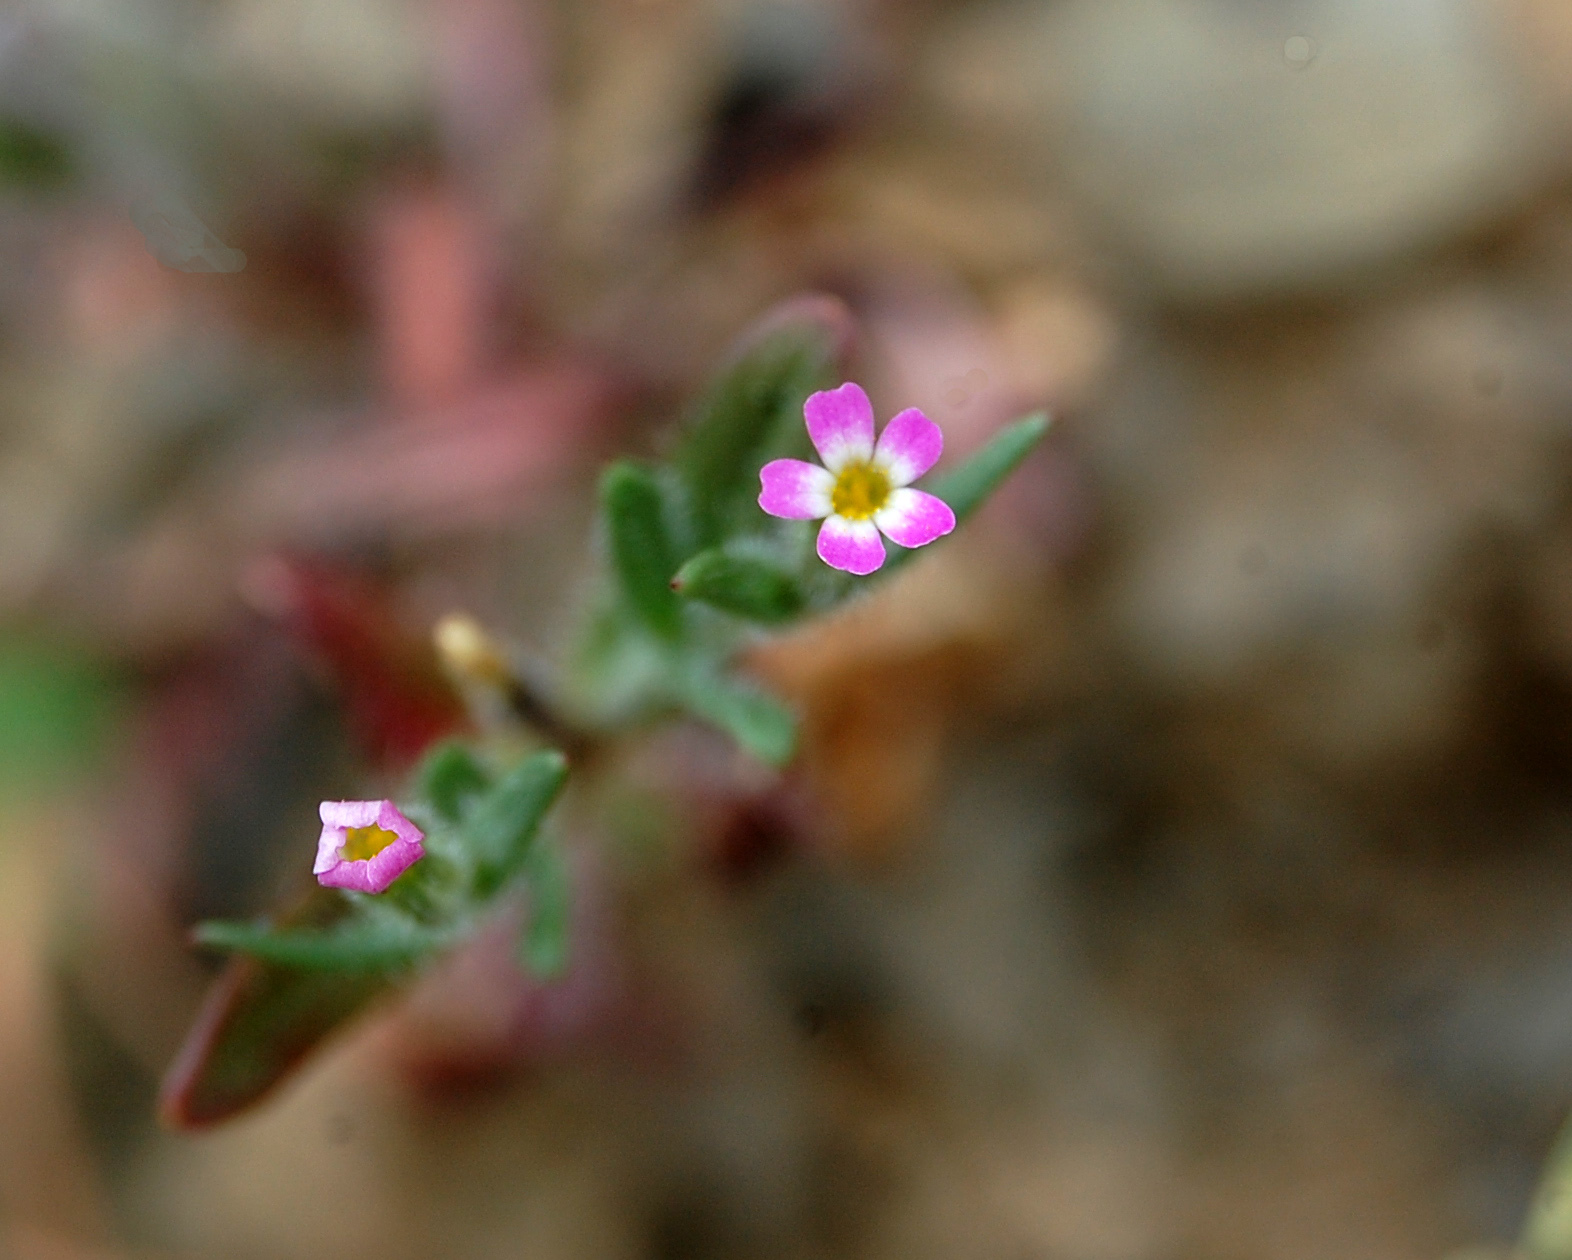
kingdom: Plantae
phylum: Tracheophyta
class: Magnoliopsida
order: Ericales
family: Polemoniaceae
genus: Phlox
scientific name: Phlox gracilis
